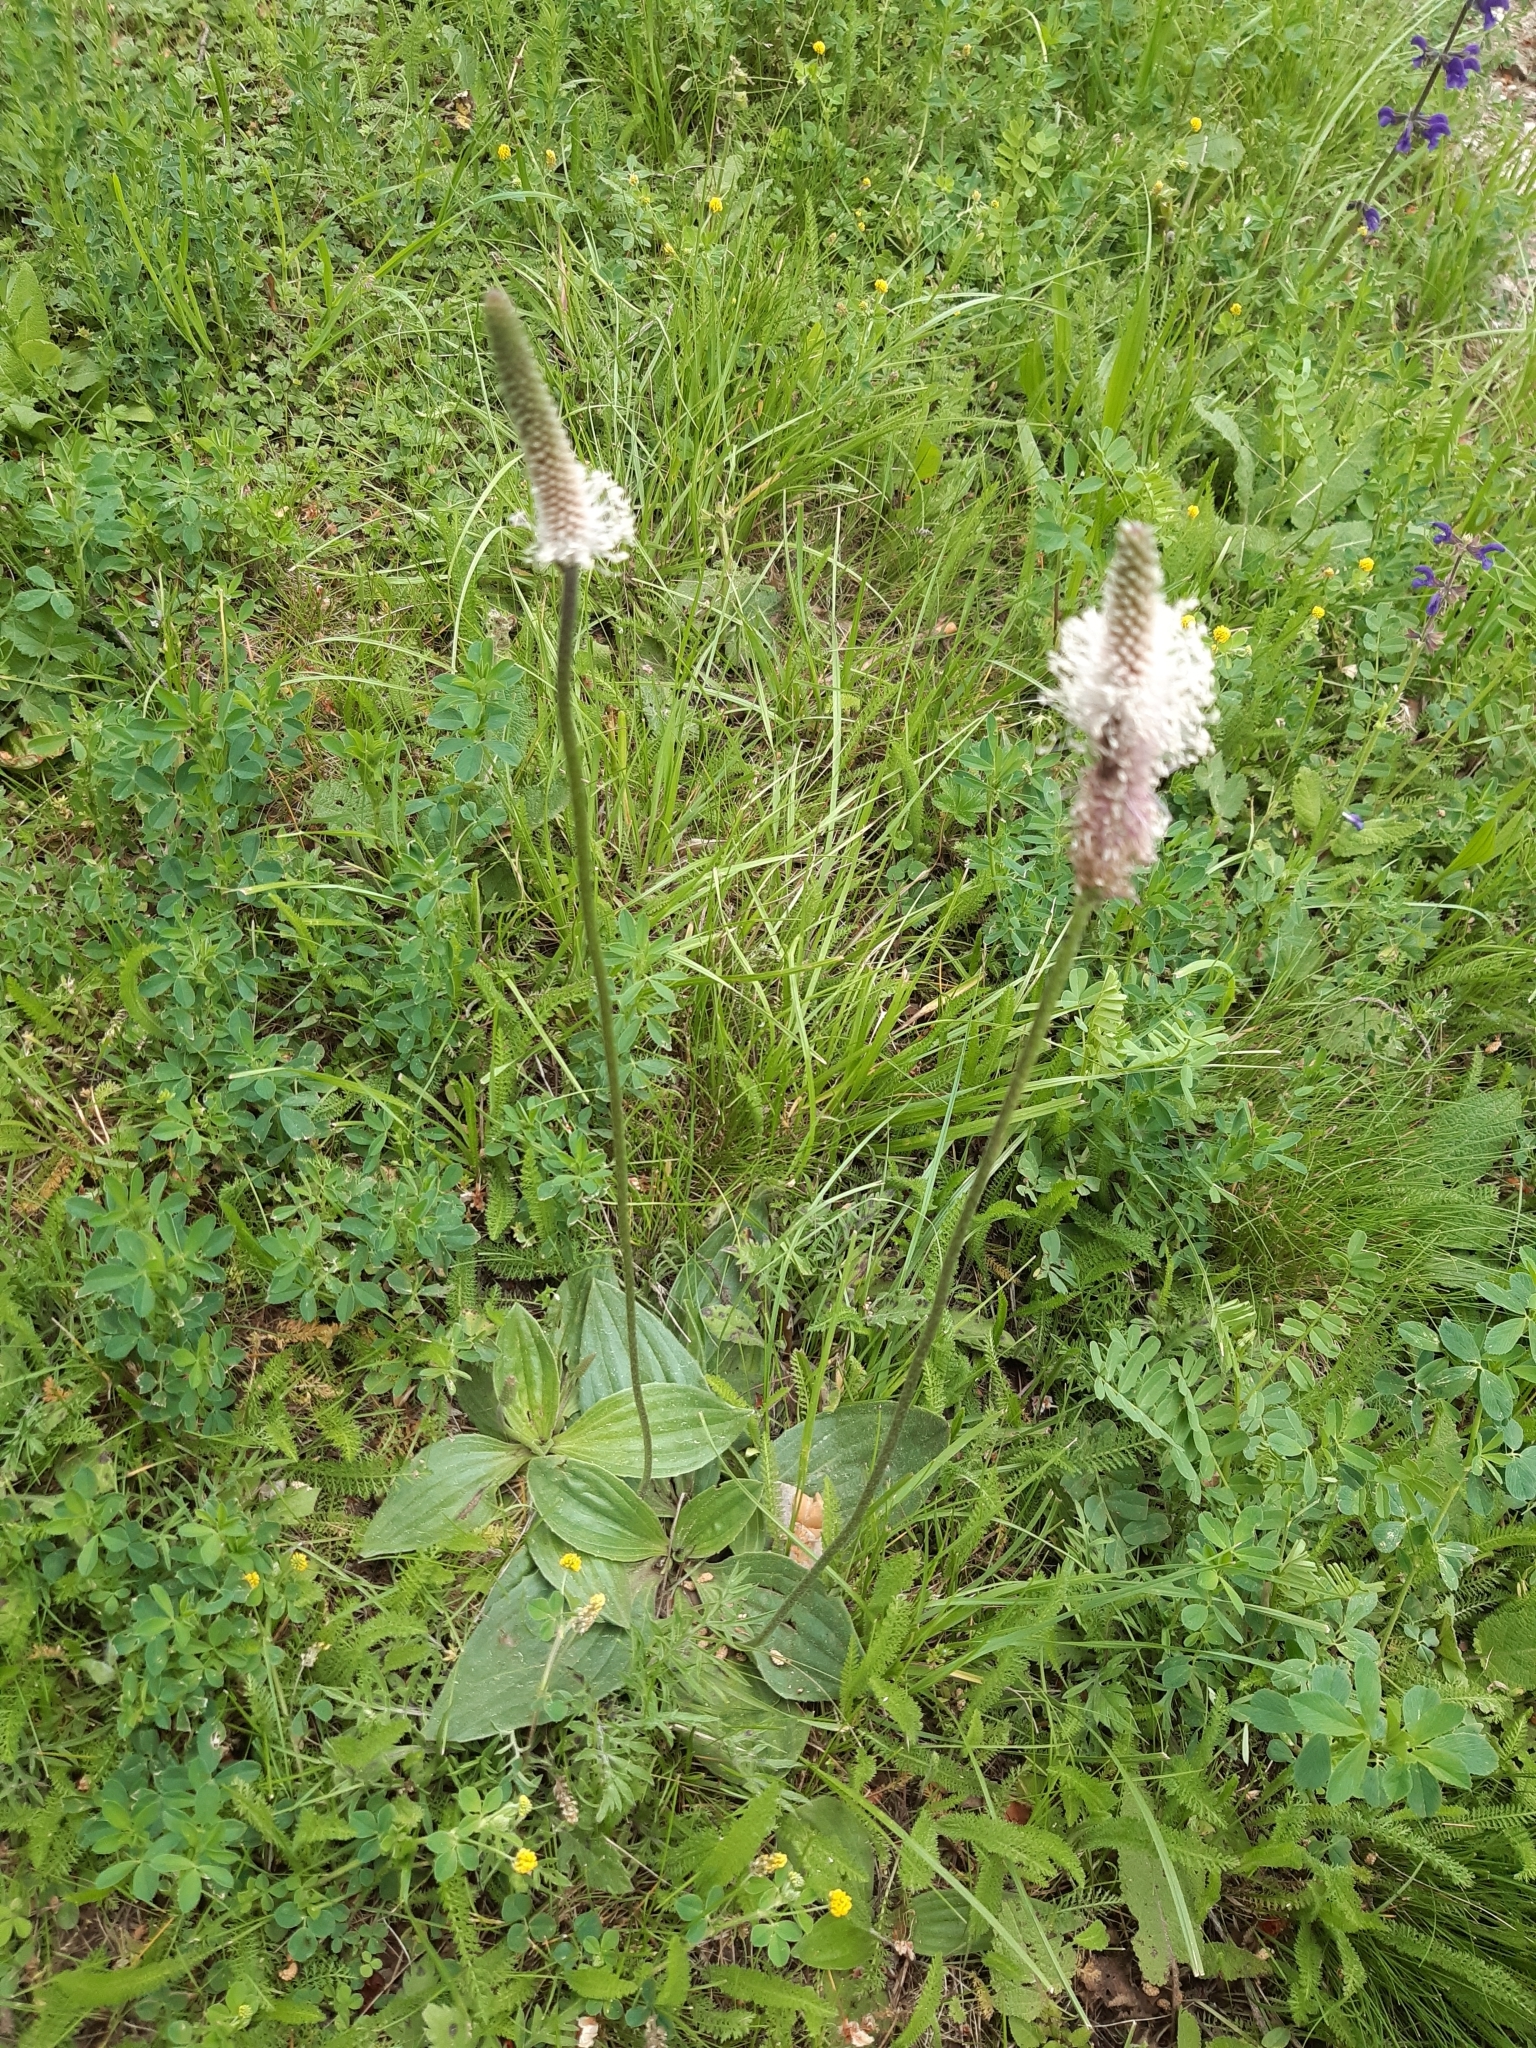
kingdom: Plantae
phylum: Tracheophyta
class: Magnoliopsida
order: Lamiales
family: Plantaginaceae
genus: Plantago
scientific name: Plantago media
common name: Hoary plantain
